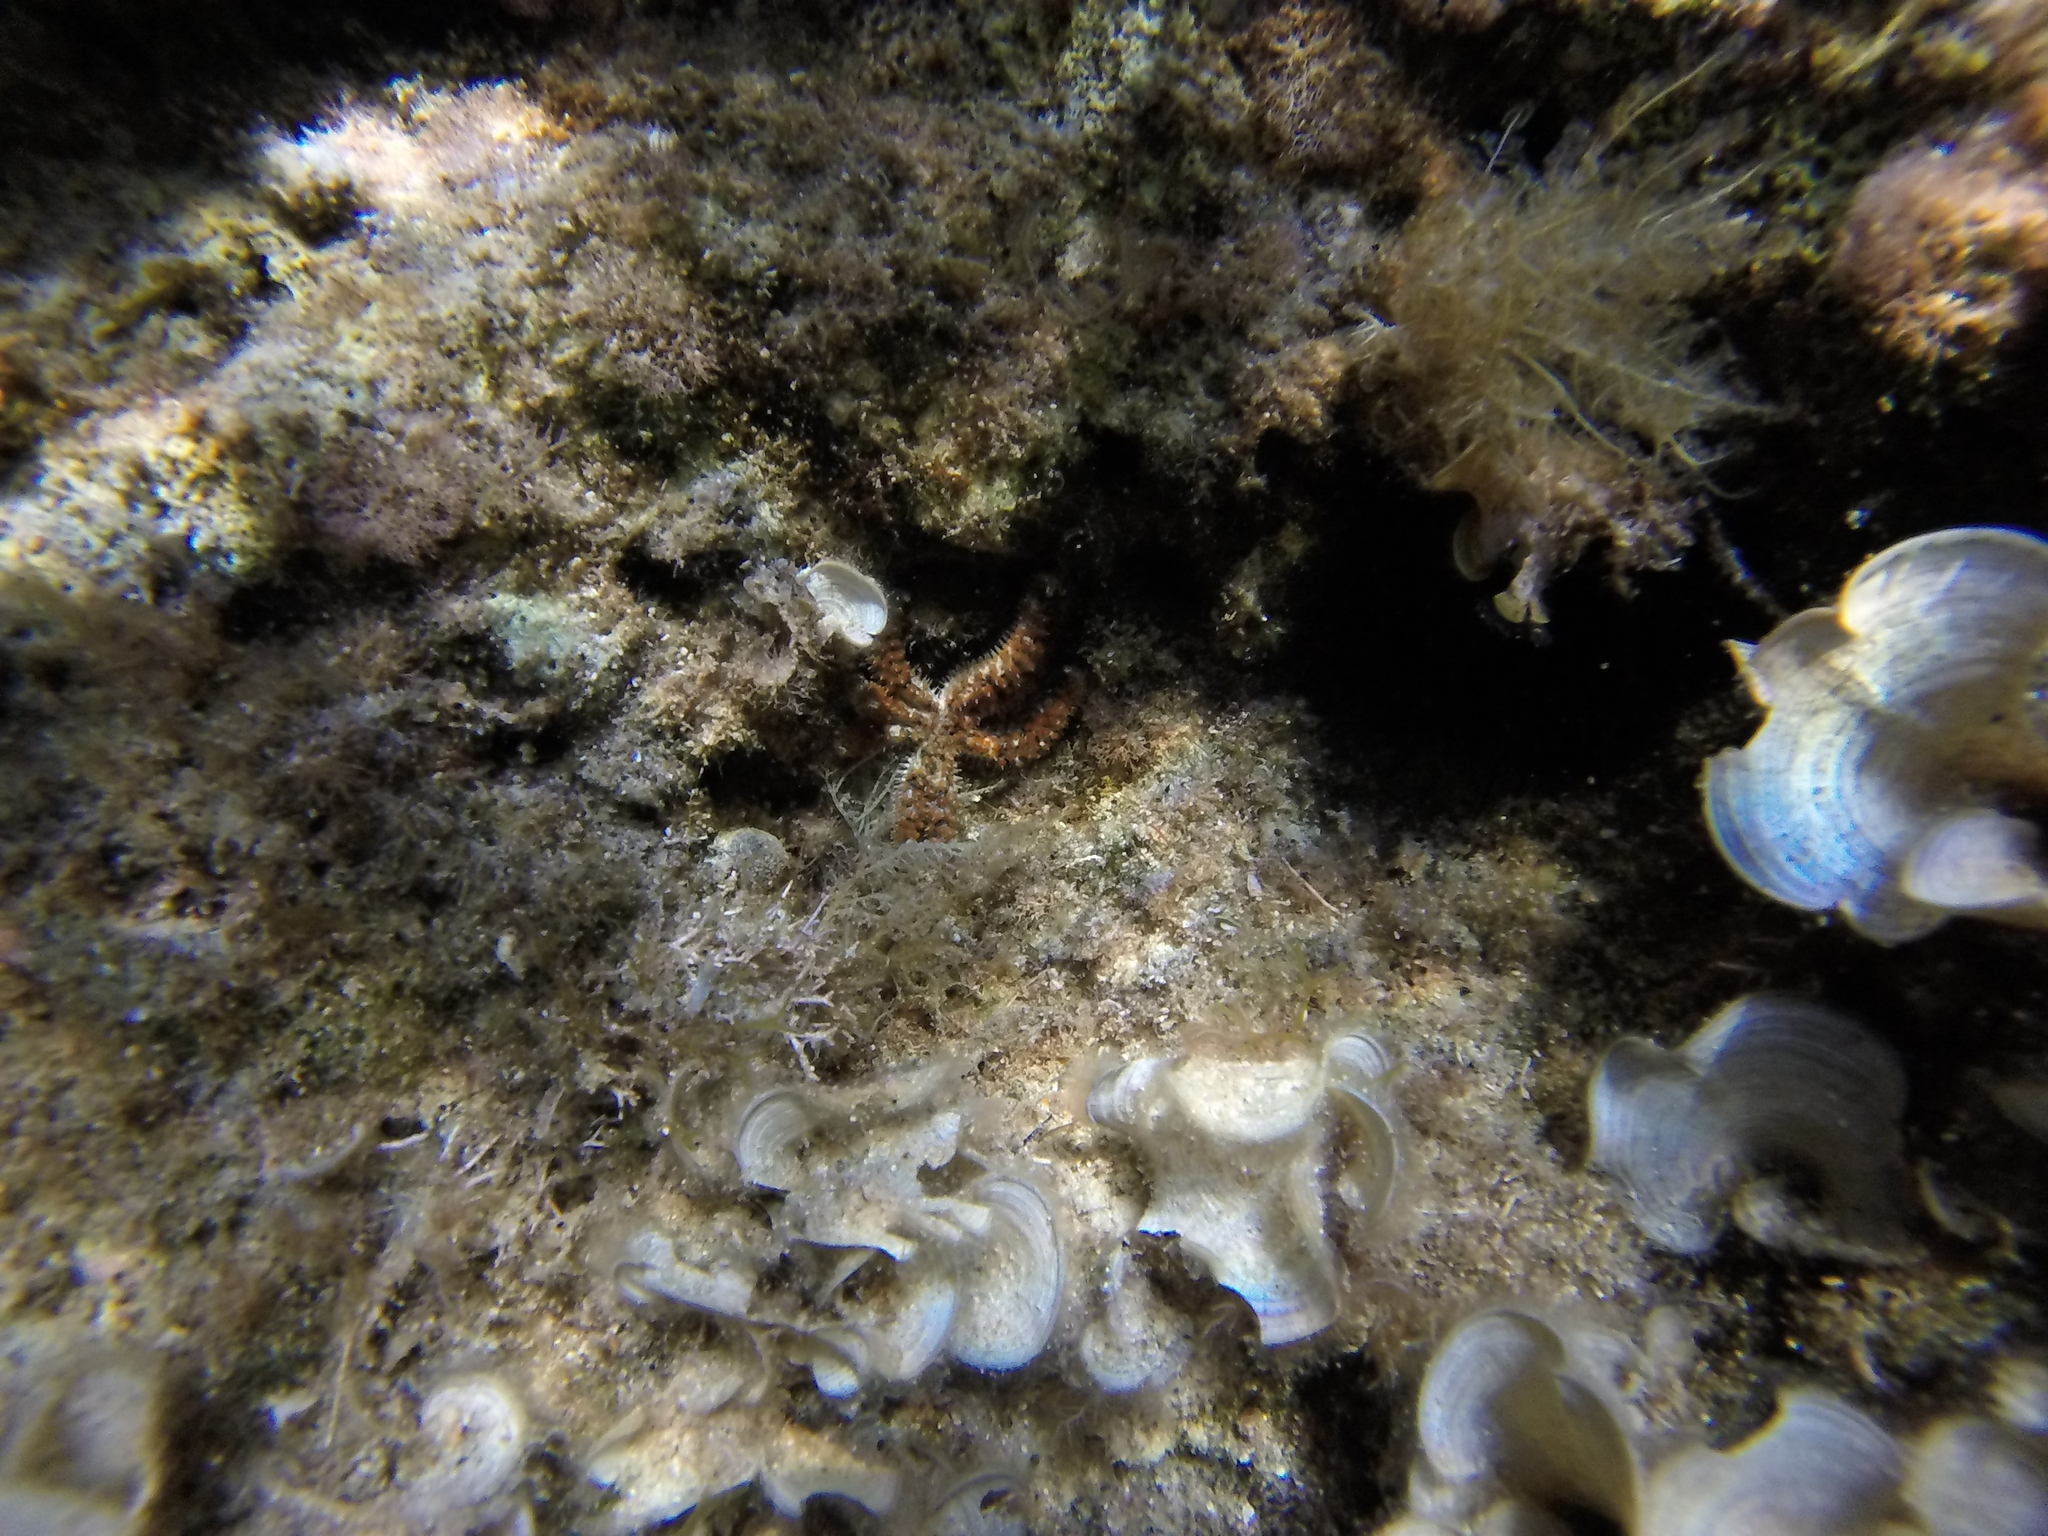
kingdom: Animalia
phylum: Echinodermata
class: Asteroidea
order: Forcipulatida
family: Asteriidae
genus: Coscinasterias
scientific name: Coscinasterias tenuispina
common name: Blue spiny starfish
